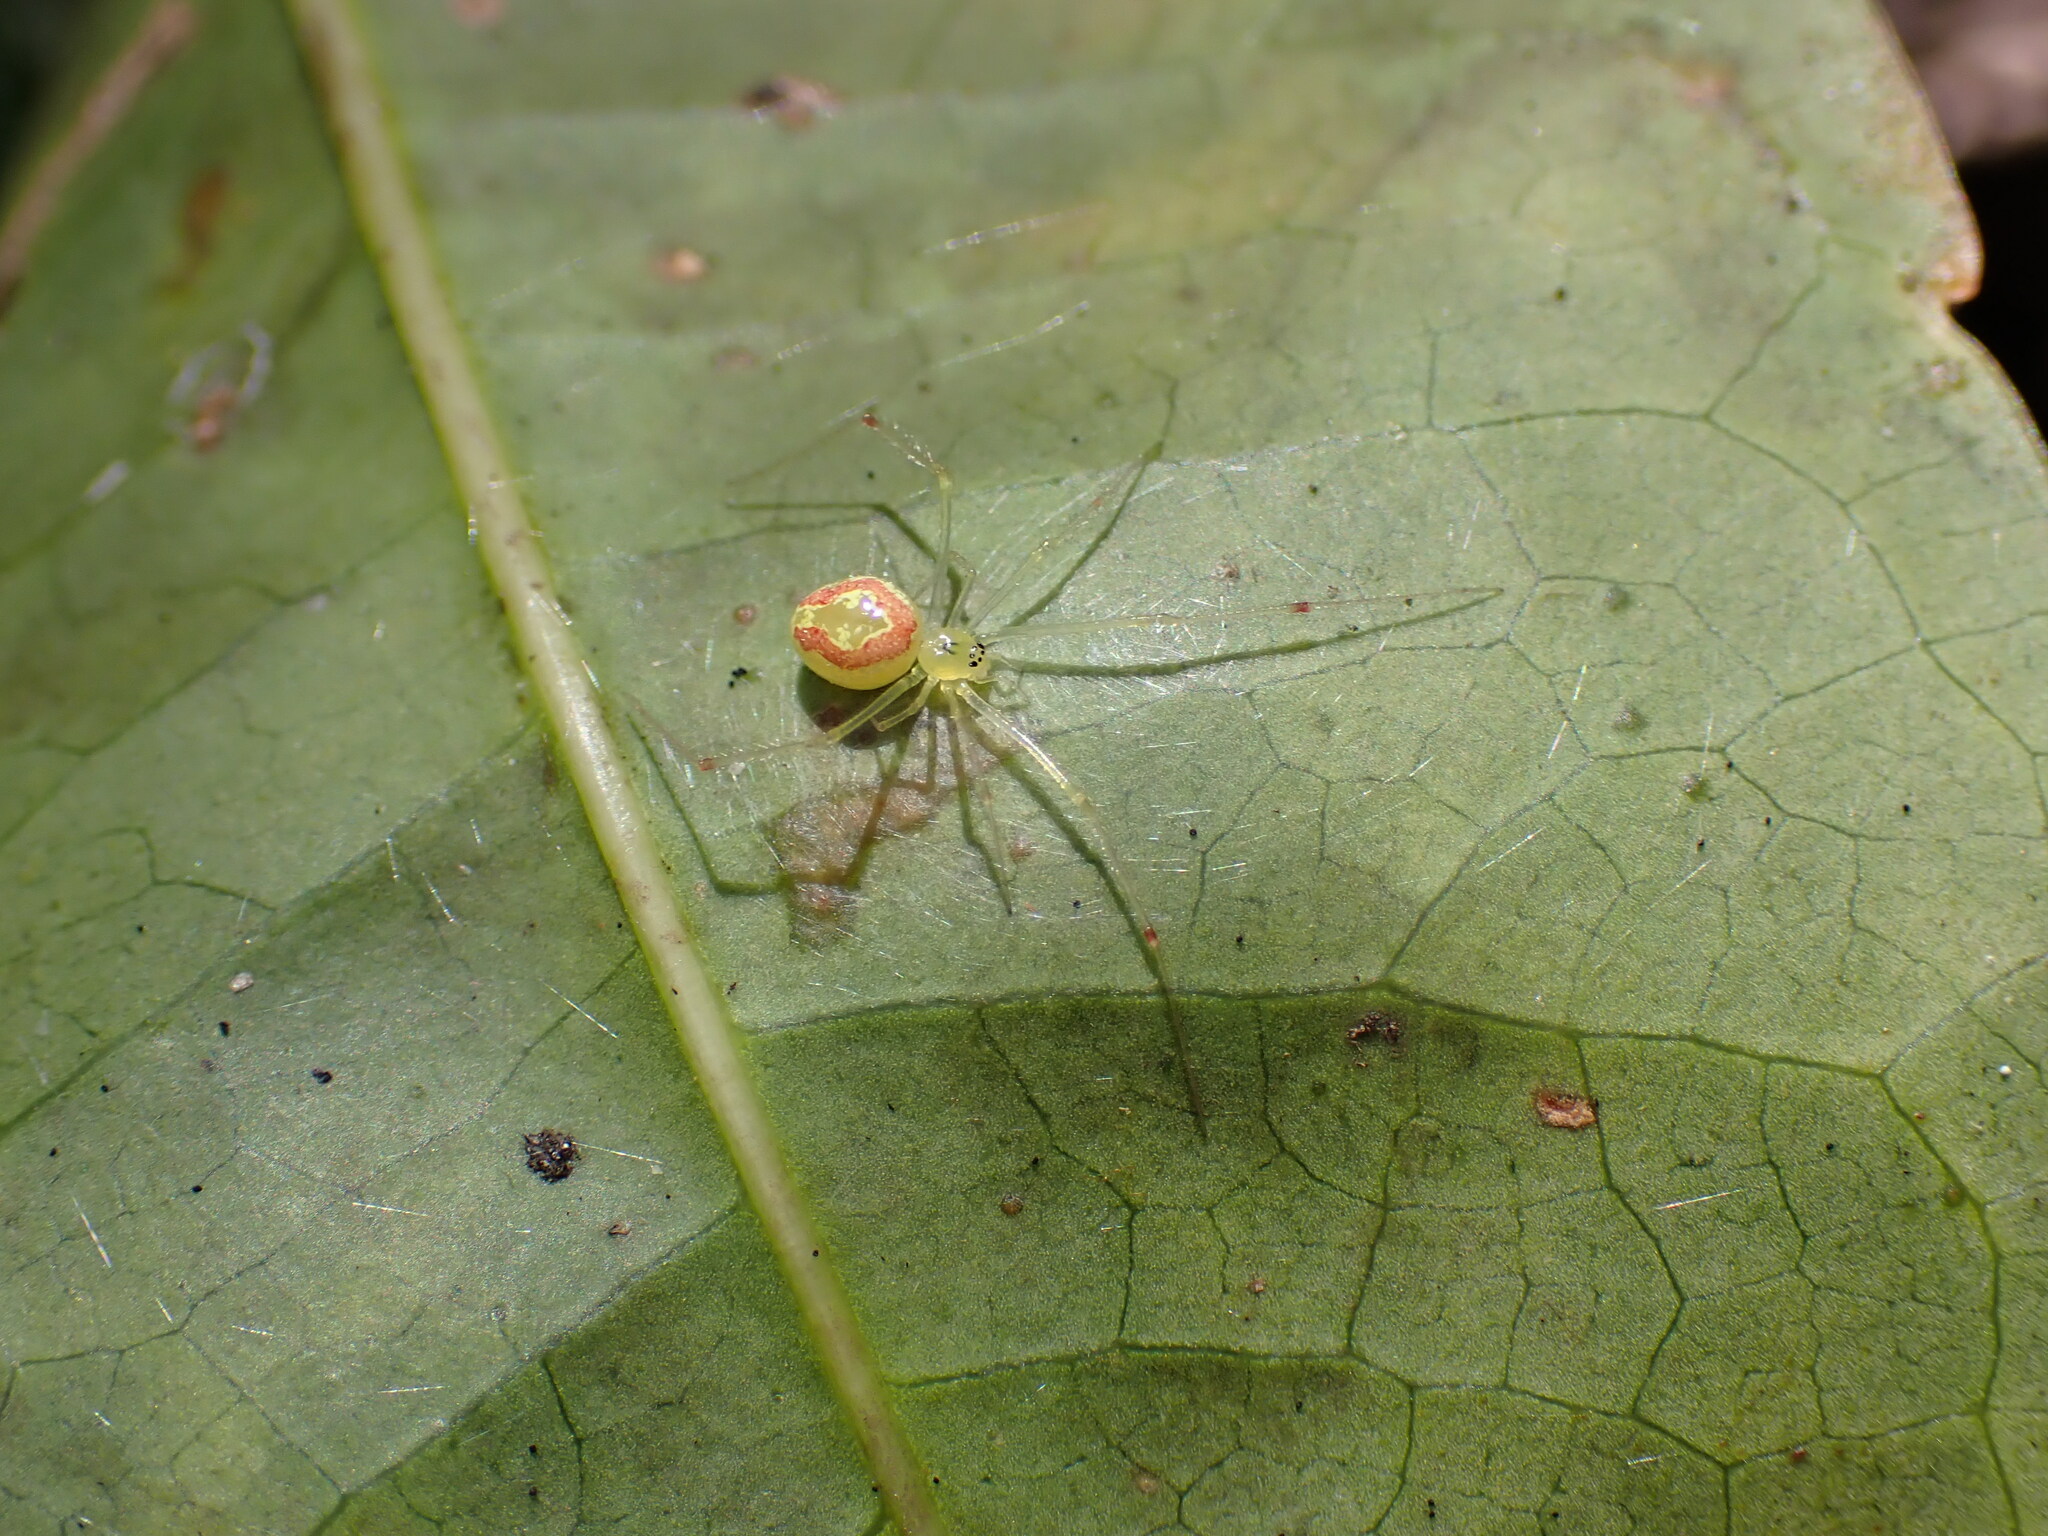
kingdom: Animalia
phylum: Arthropoda
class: Arachnida
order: Araneae
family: Theridiidae
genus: Theridion
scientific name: Theridion grallator
